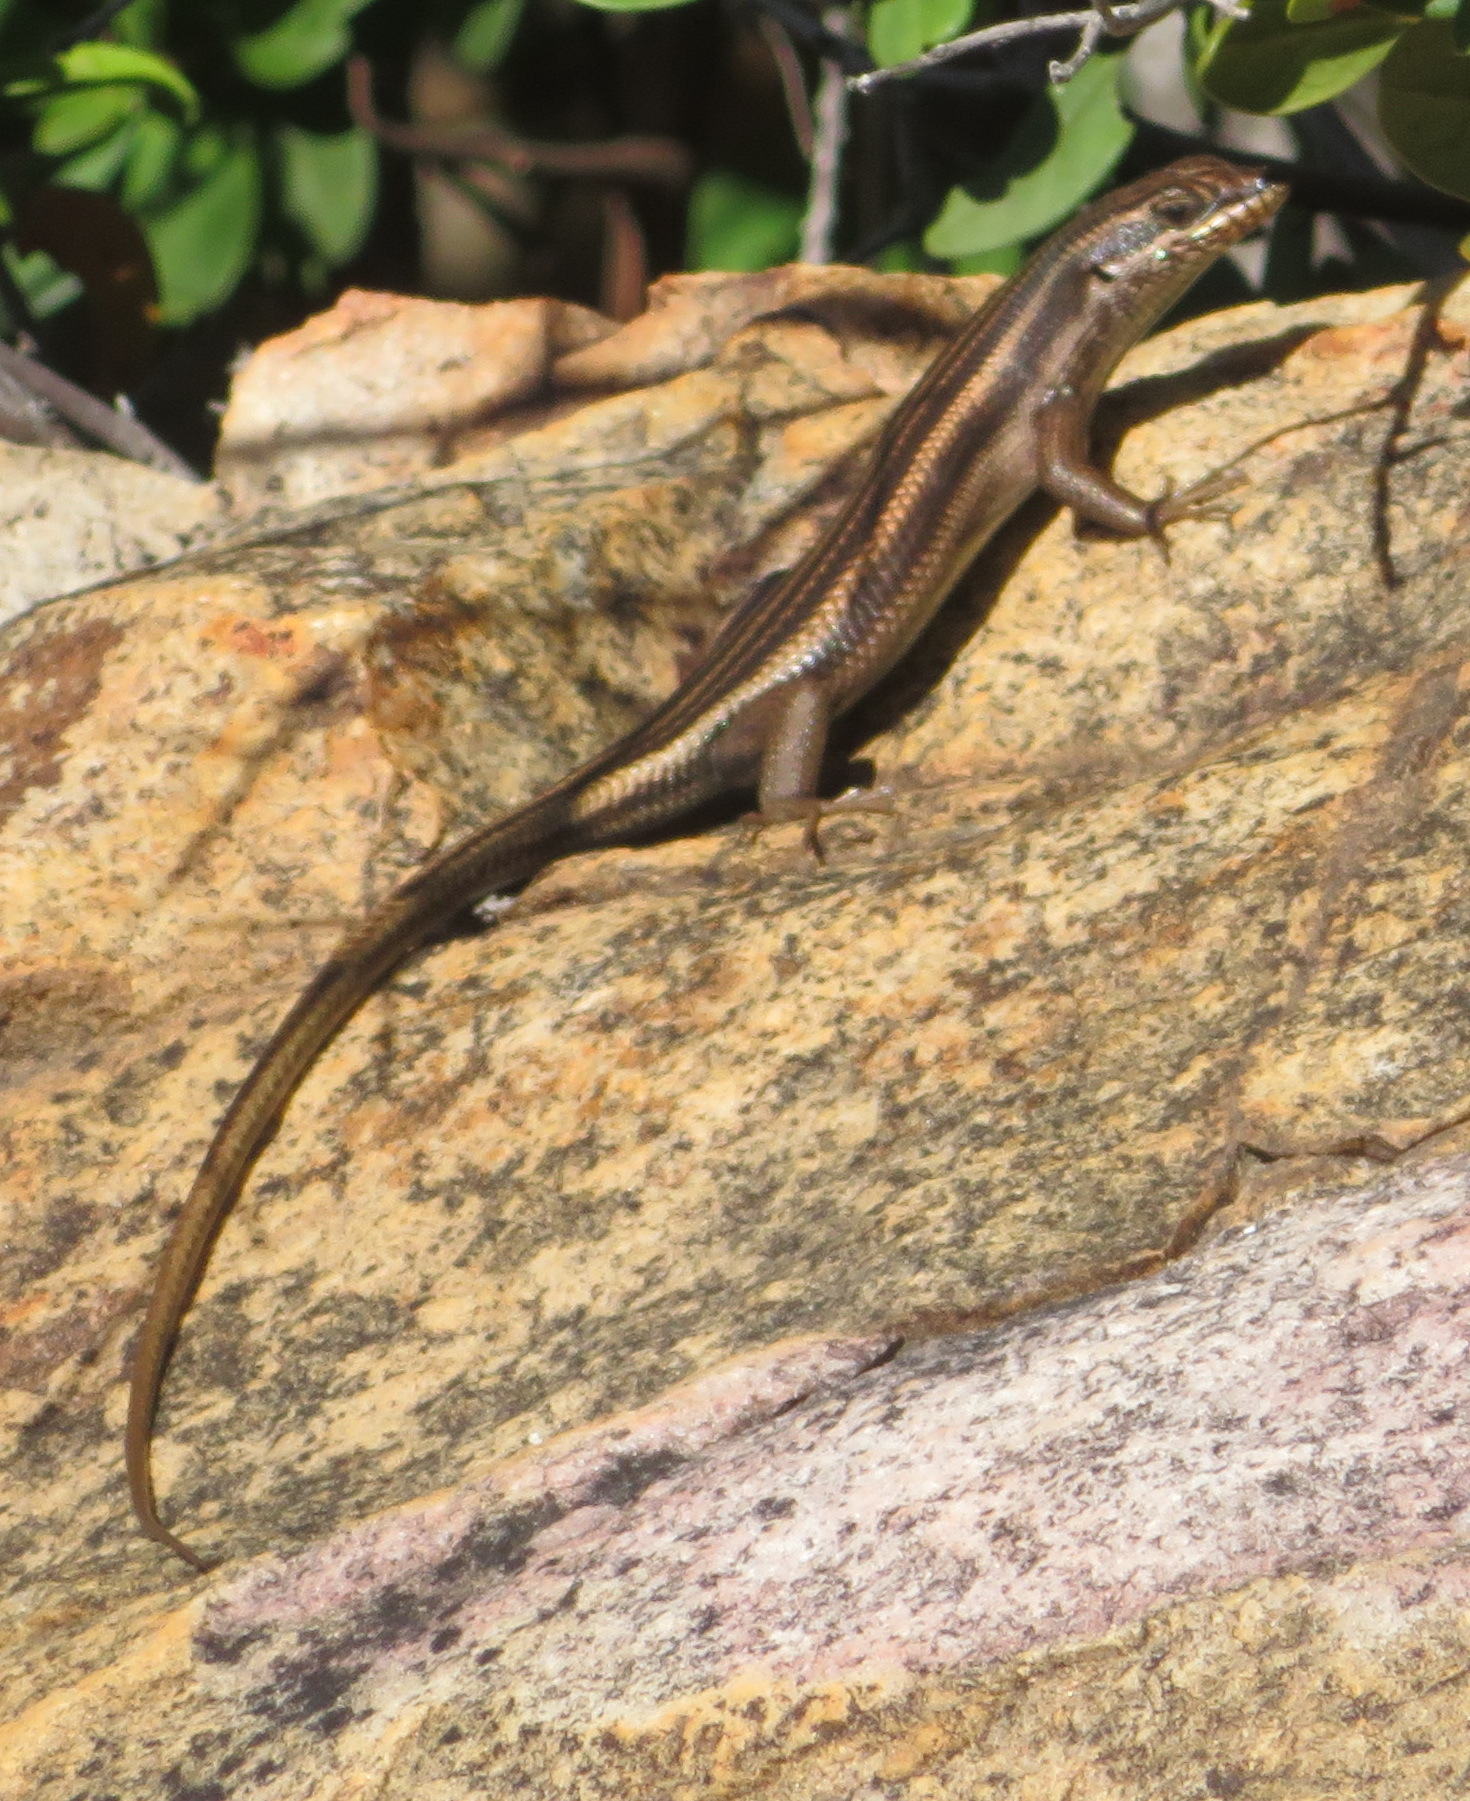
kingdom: Animalia
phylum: Chordata
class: Squamata
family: Scincidae
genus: Trachylepis
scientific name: Trachylepis sulcata
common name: Western rock skink
